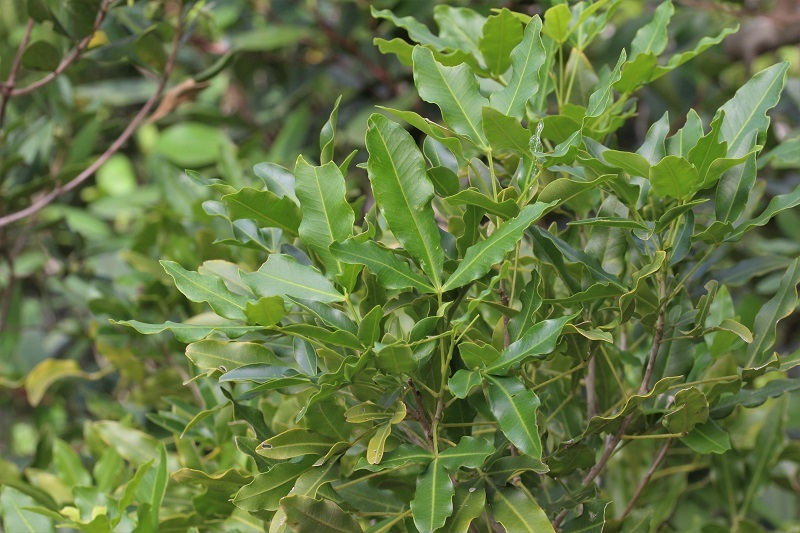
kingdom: Plantae
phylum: Tracheophyta
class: Magnoliopsida
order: Sapindales
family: Rutaceae
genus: Vepris
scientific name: Vepris lanceolata
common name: White ironwood
